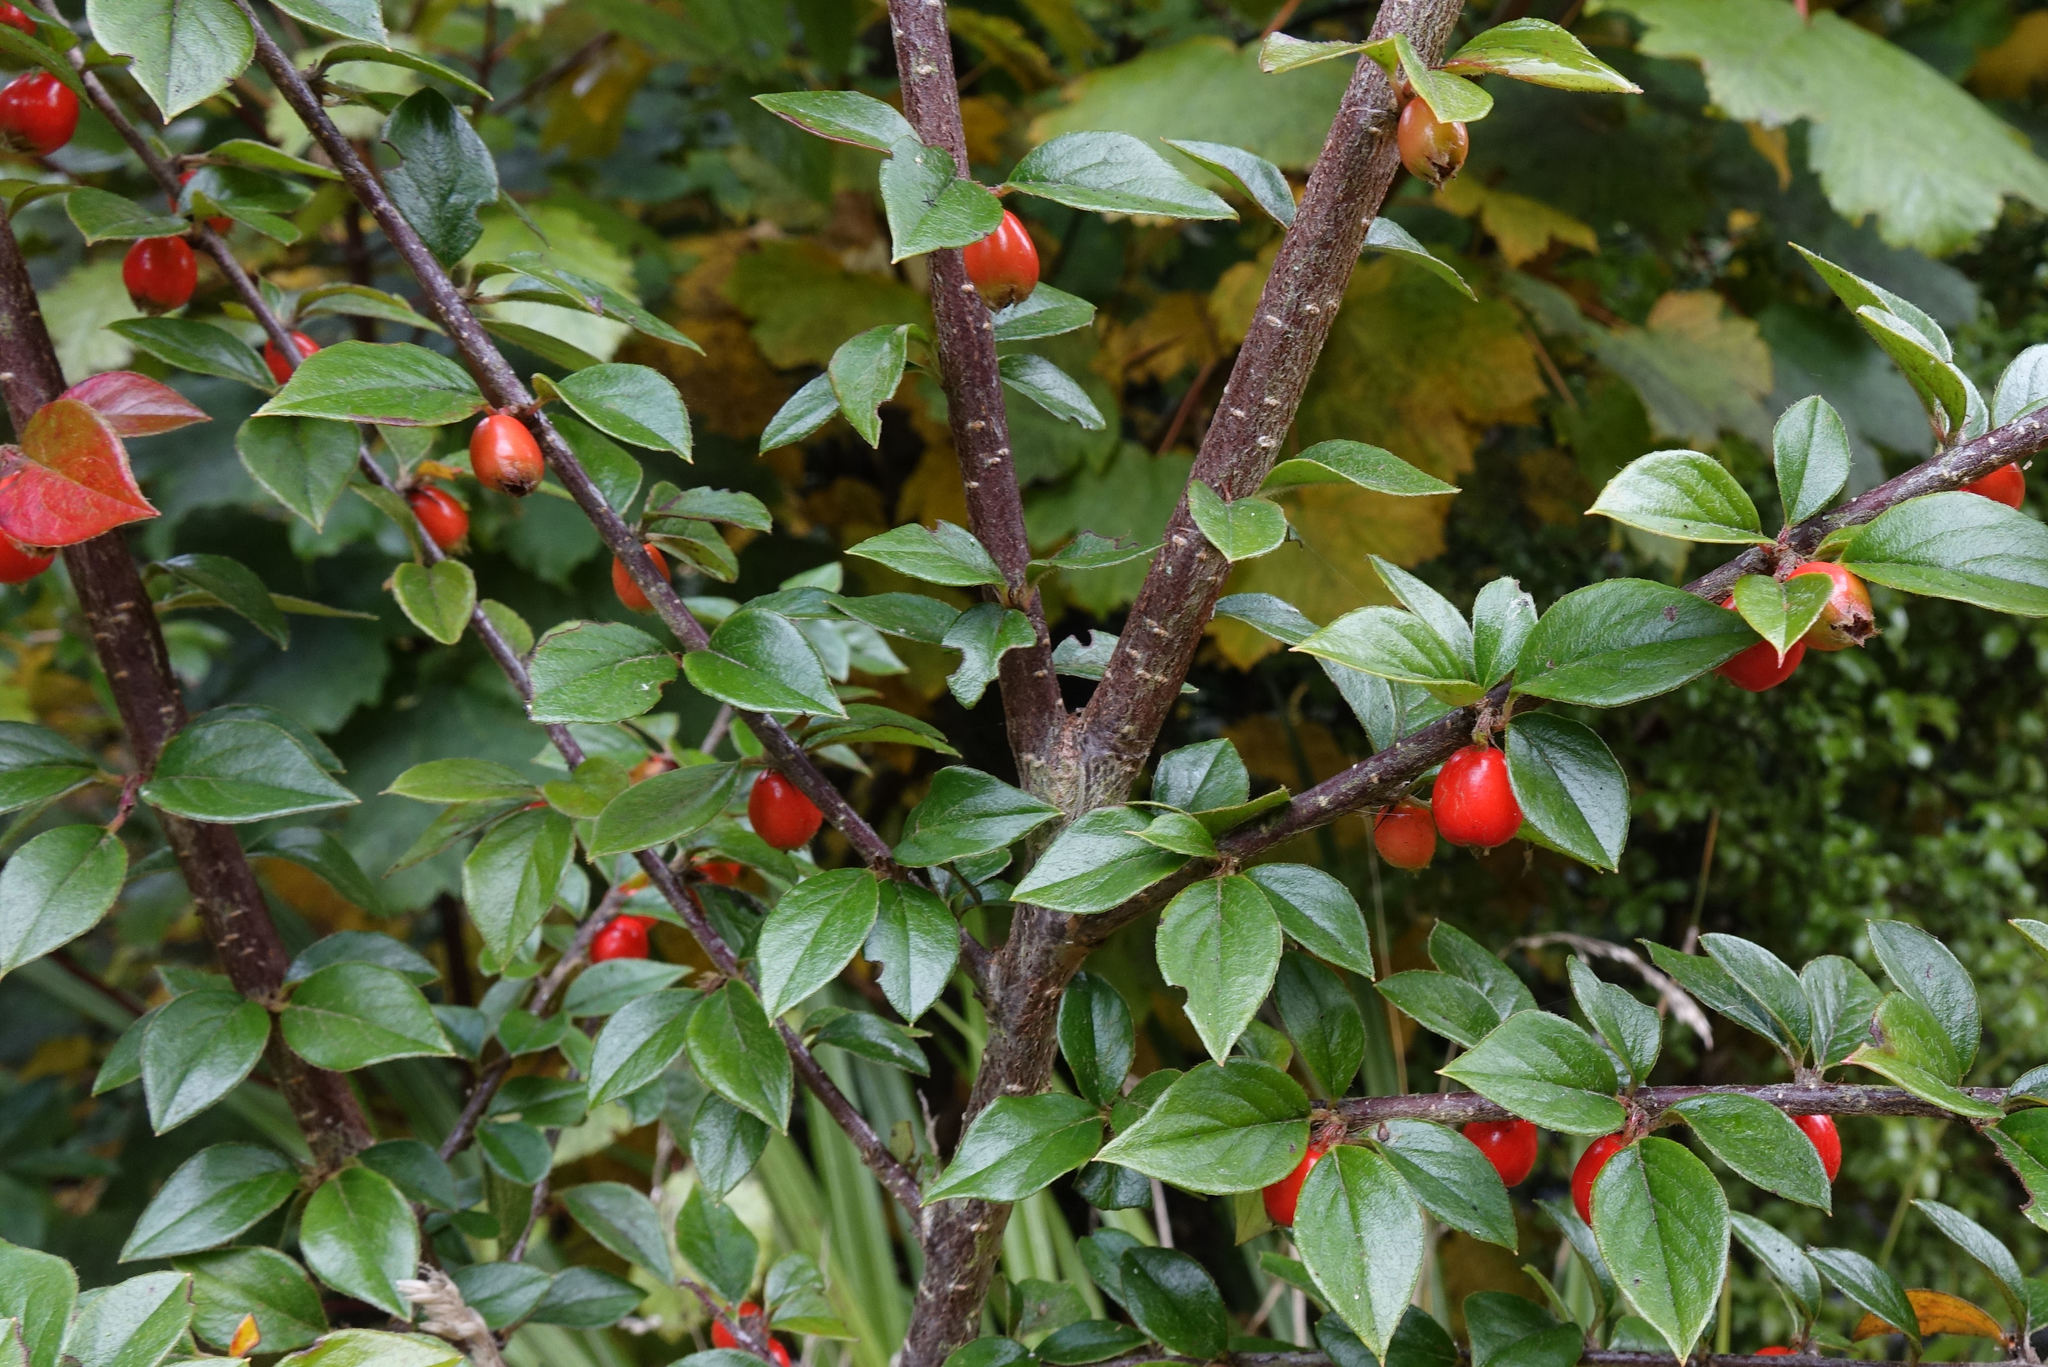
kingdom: Plantae
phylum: Tracheophyta
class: Magnoliopsida
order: Rosales
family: Rosaceae
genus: Cotoneaster
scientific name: Cotoneaster simonsii
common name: Himalayan cotoneaster
